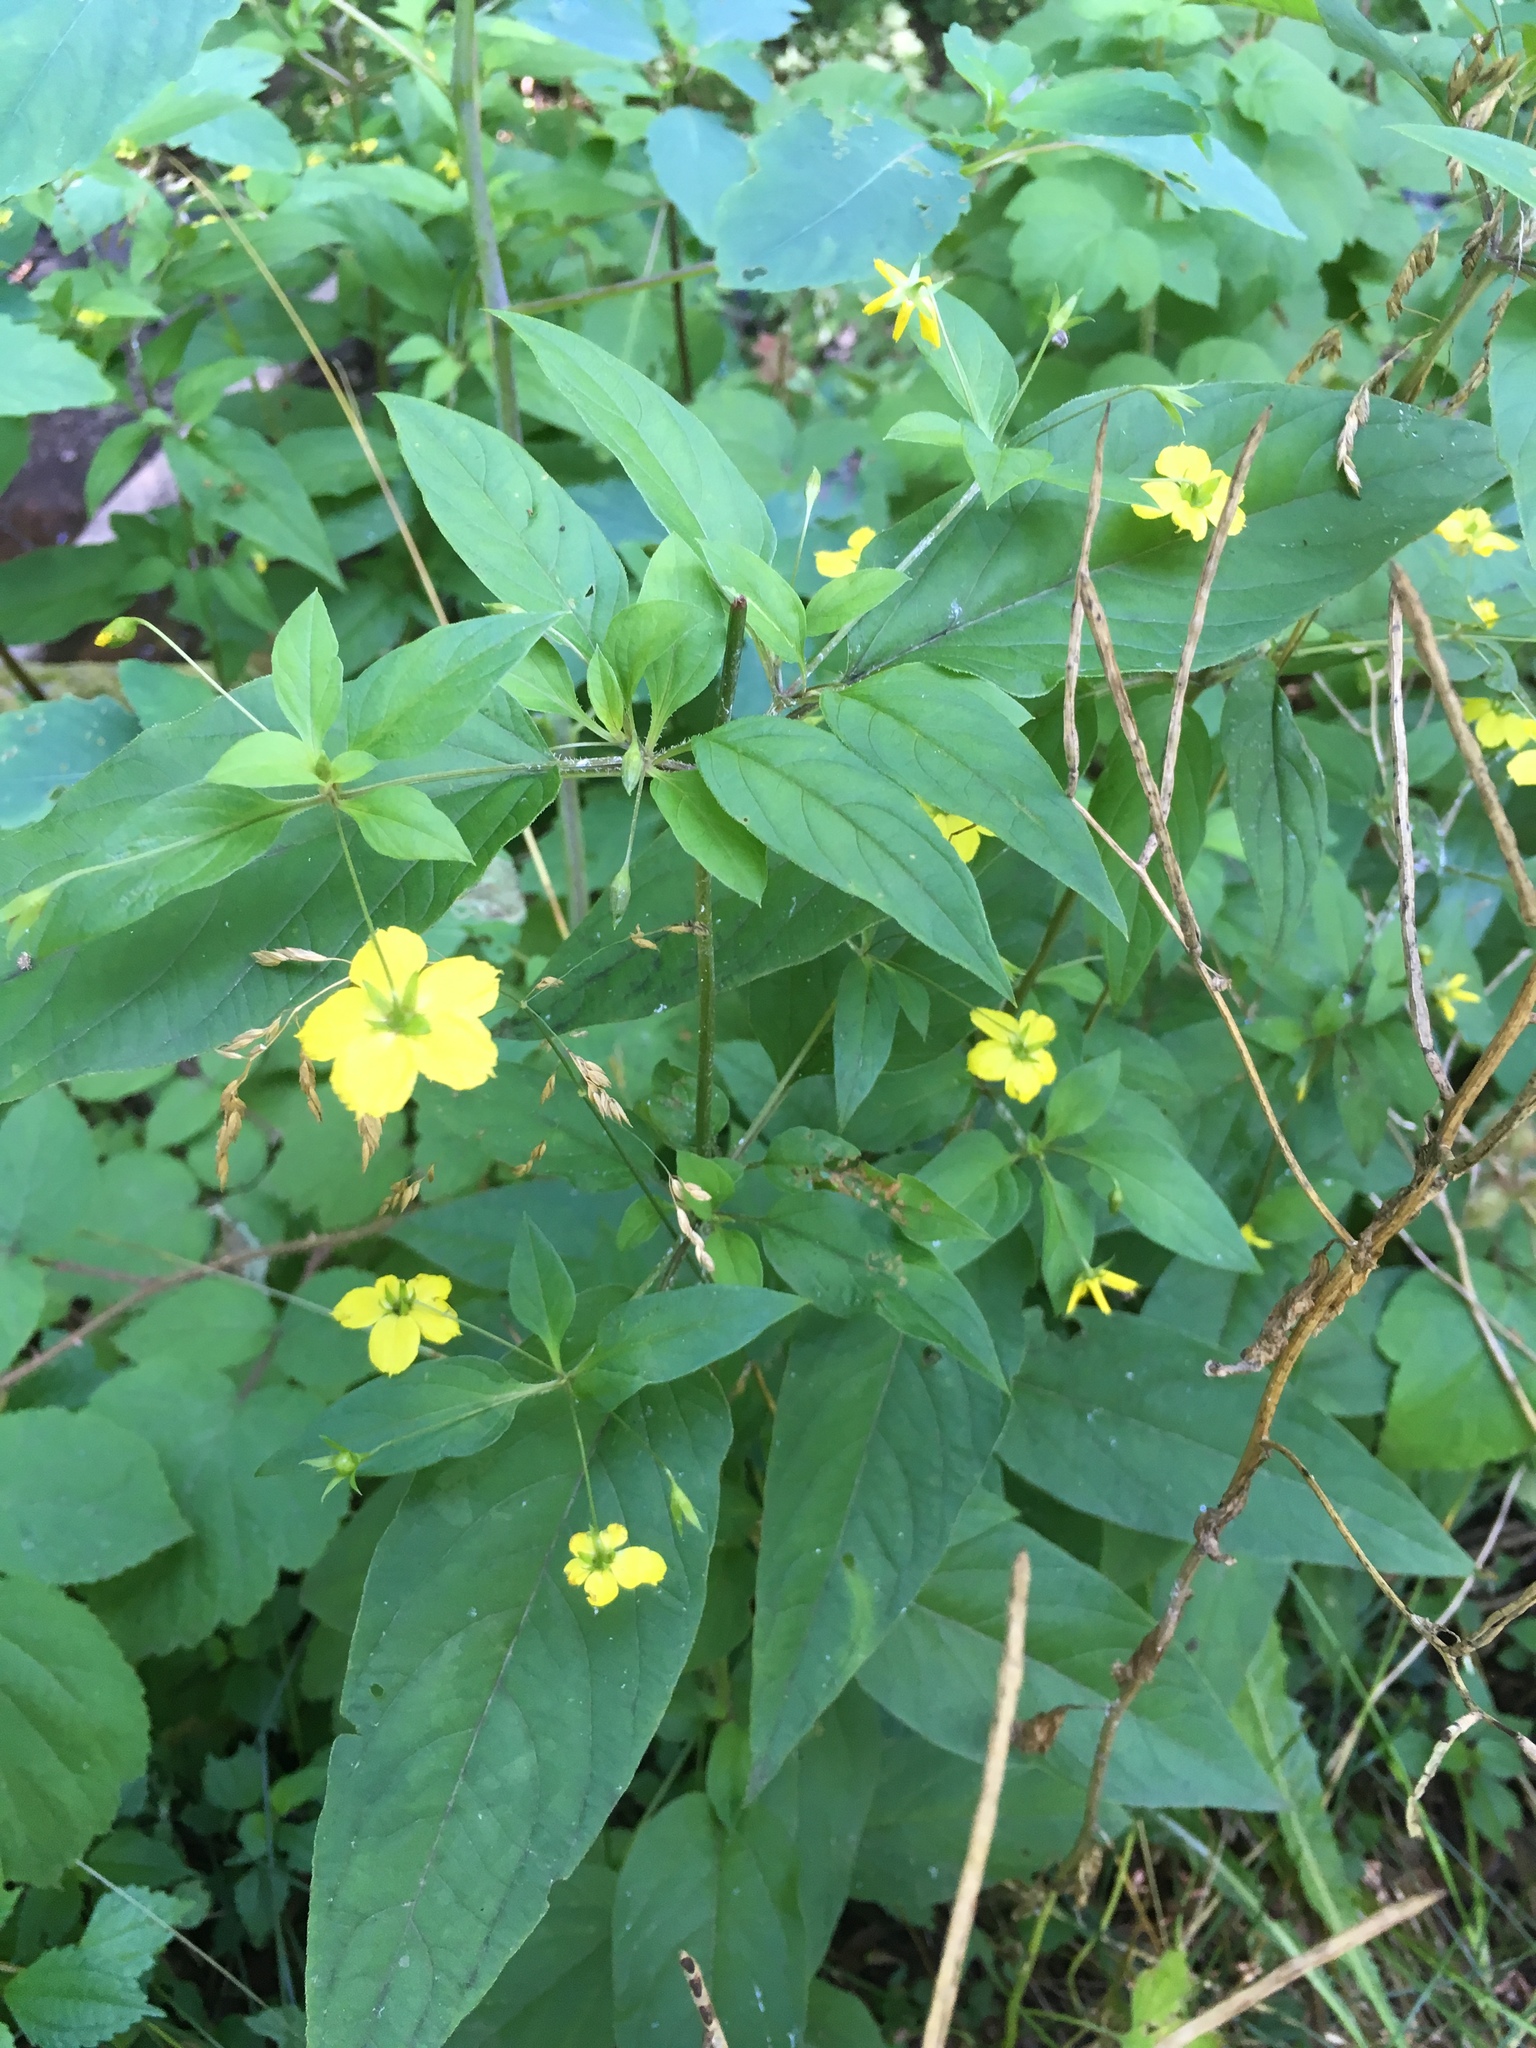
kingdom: Plantae
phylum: Tracheophyta
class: Magnoliopsida
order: Ericales
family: Primulaceae
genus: Lysimachia
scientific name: Lysimachia ciliata
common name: Fringed loosestrife
